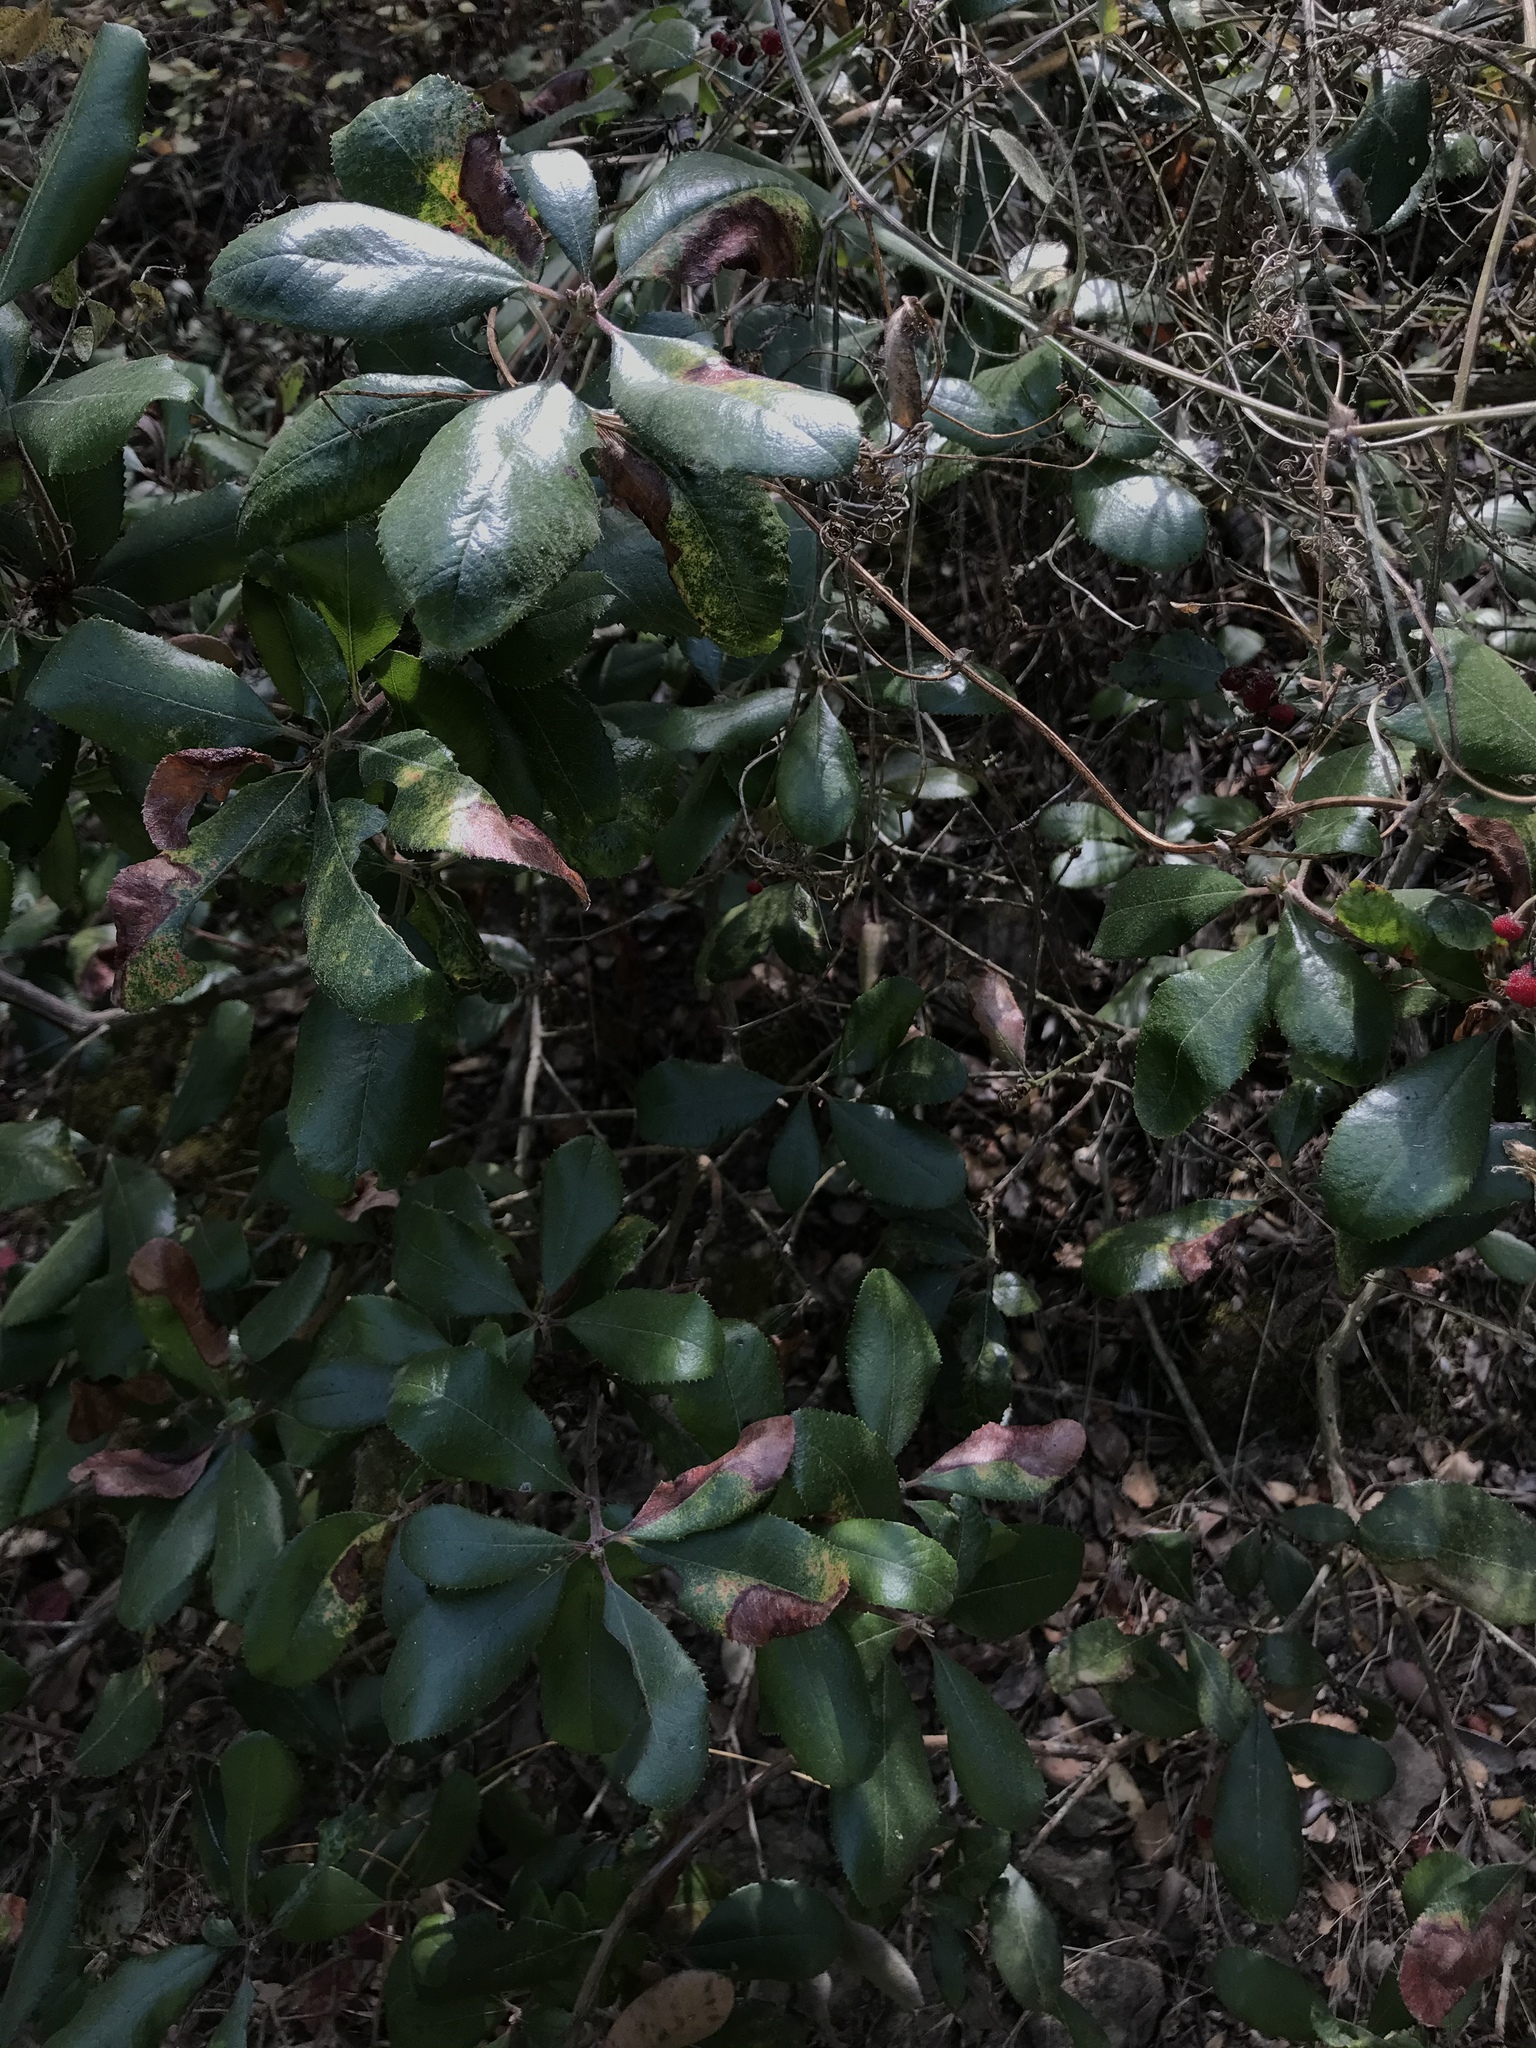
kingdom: Plantae
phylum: Tracheophyta
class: Magnoliopsida
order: Ericales
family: Ericaceae
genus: Comarostaphylis
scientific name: Comarostaphylis diversifolia
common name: Summer-holly
